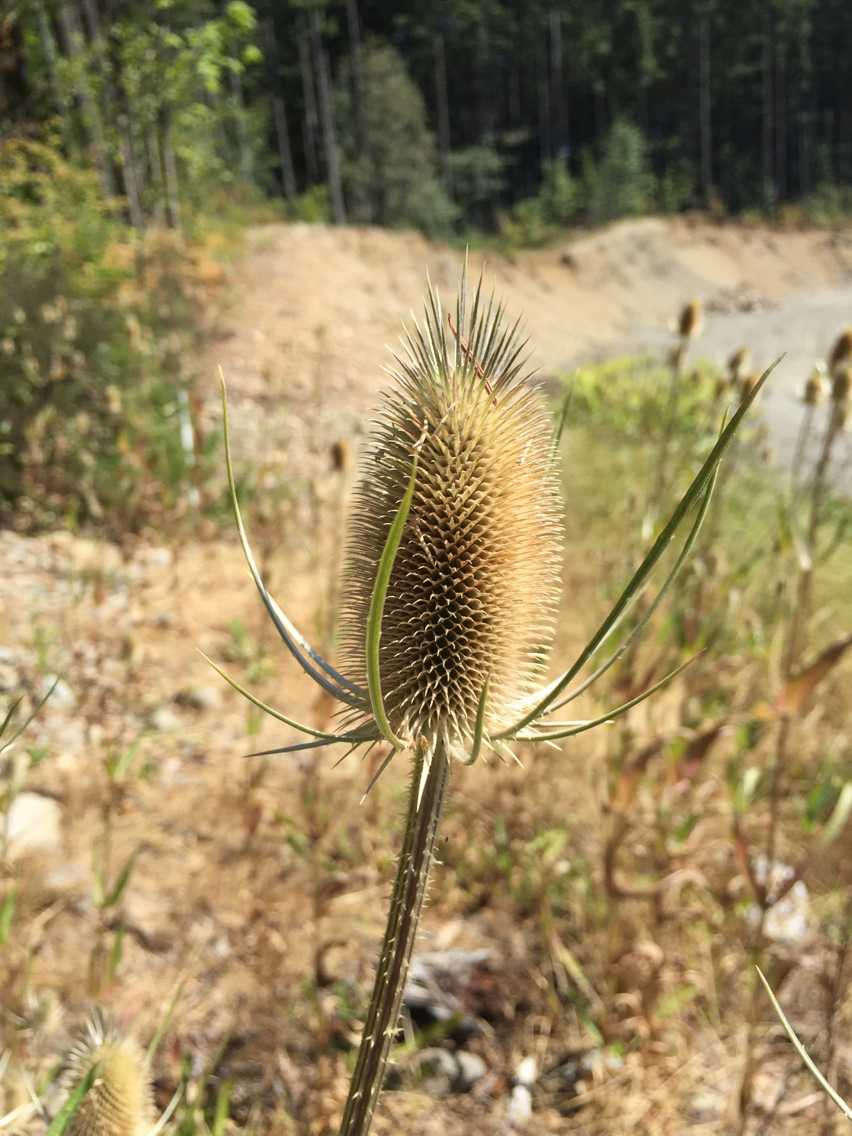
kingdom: Plantae
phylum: Tracheophyta
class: Magnoliopsida
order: Dipsacales
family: Caprifoliaceae
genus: Dipsacus
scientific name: Dipsacus fullonum
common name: Teasel
